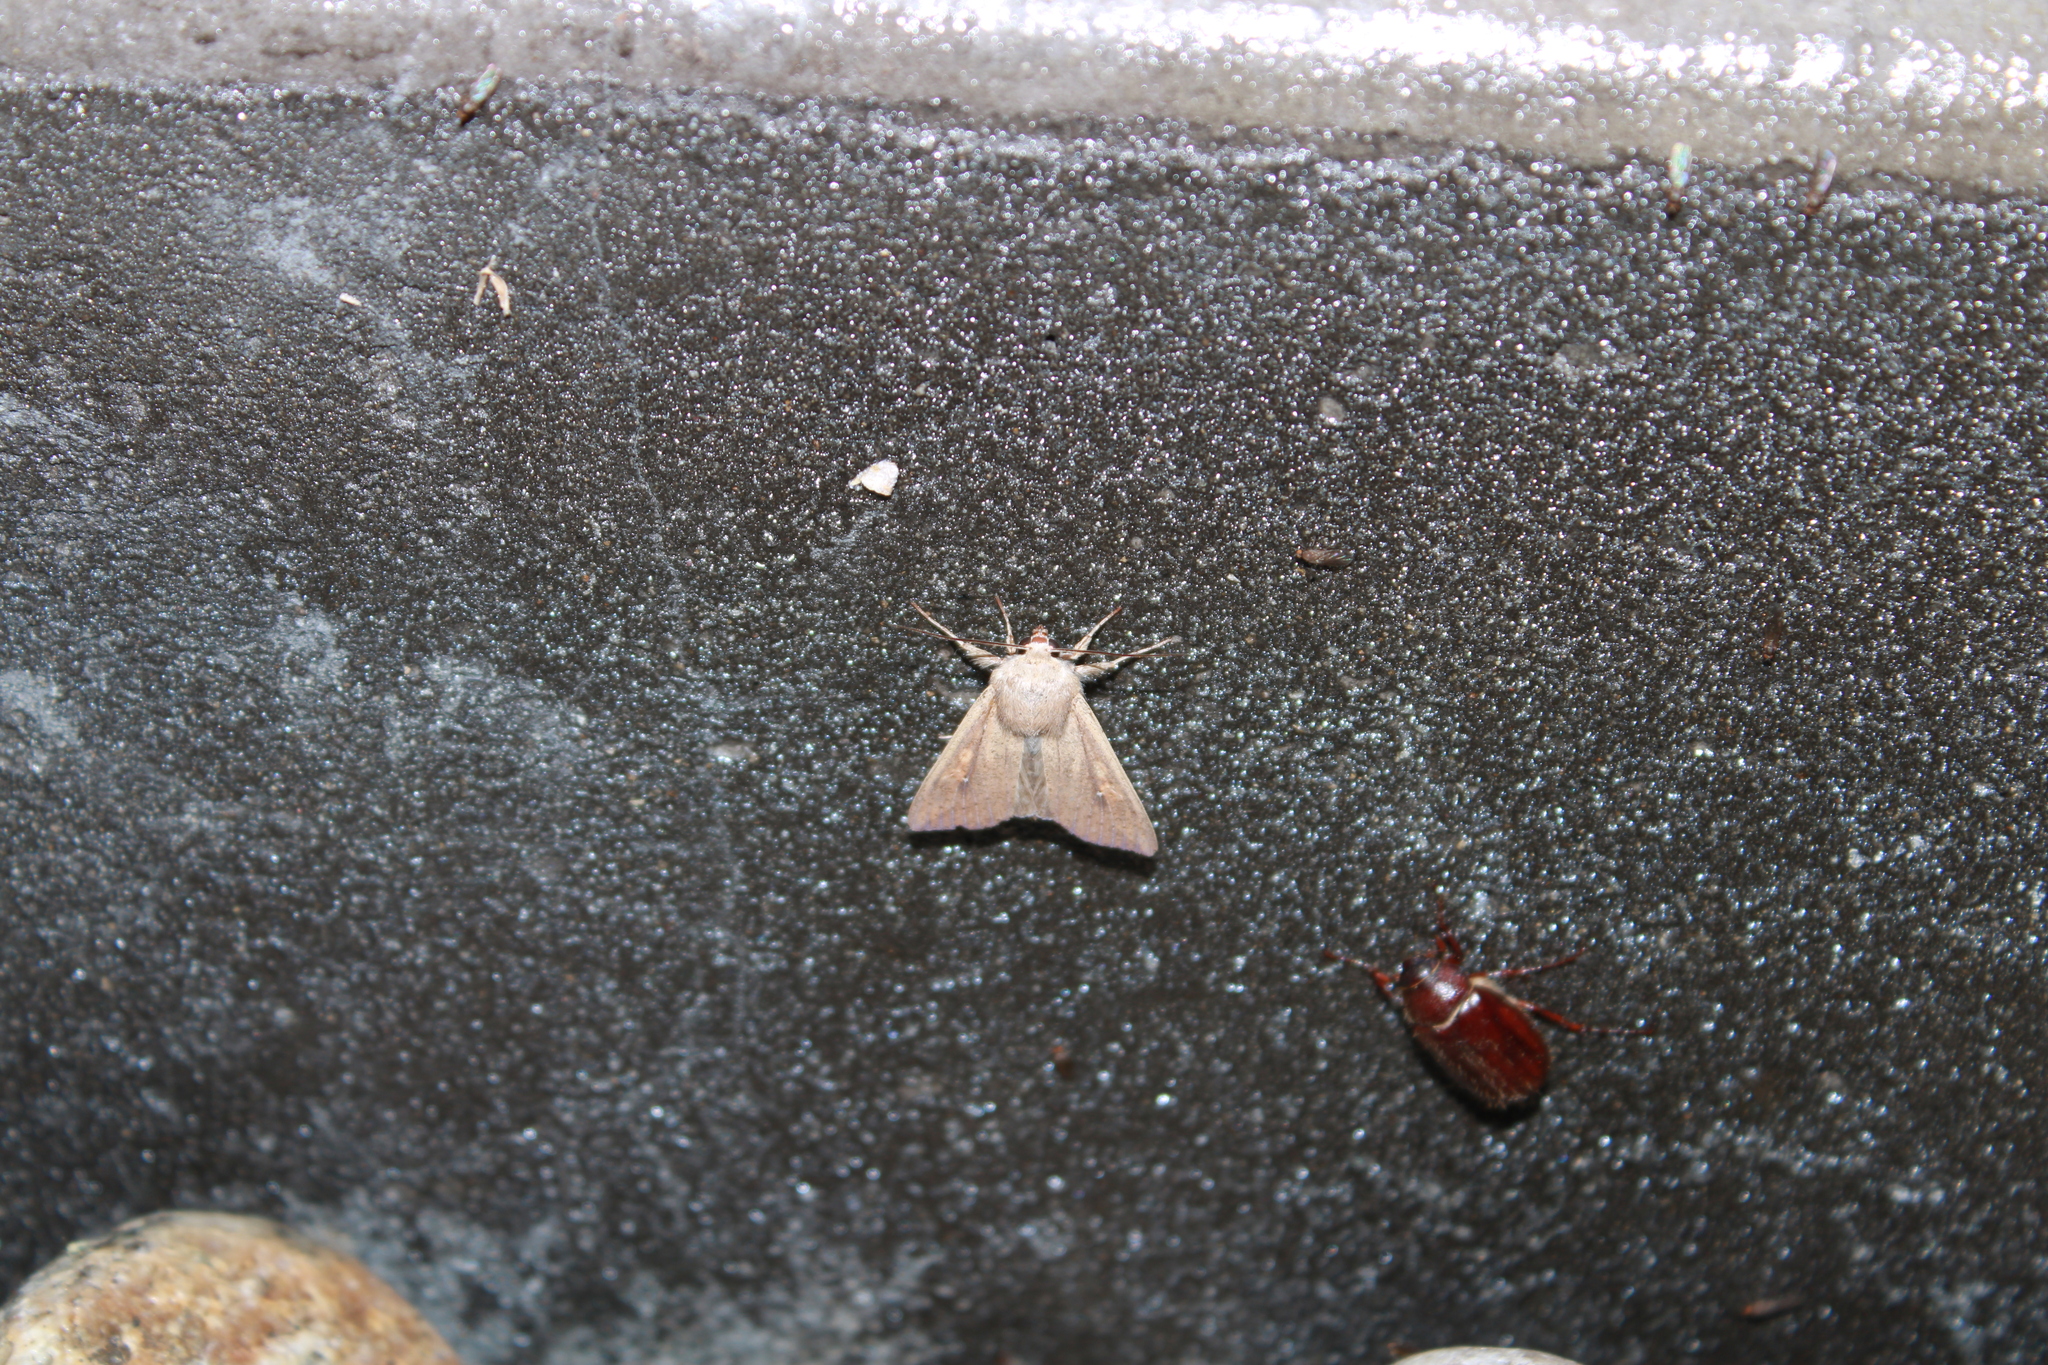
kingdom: Animalia
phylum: Arthropoda
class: Insecta
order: Lepidoptera
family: Noctuidae
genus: Mythimna
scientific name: Mythimna unipuncta
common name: White-speck
